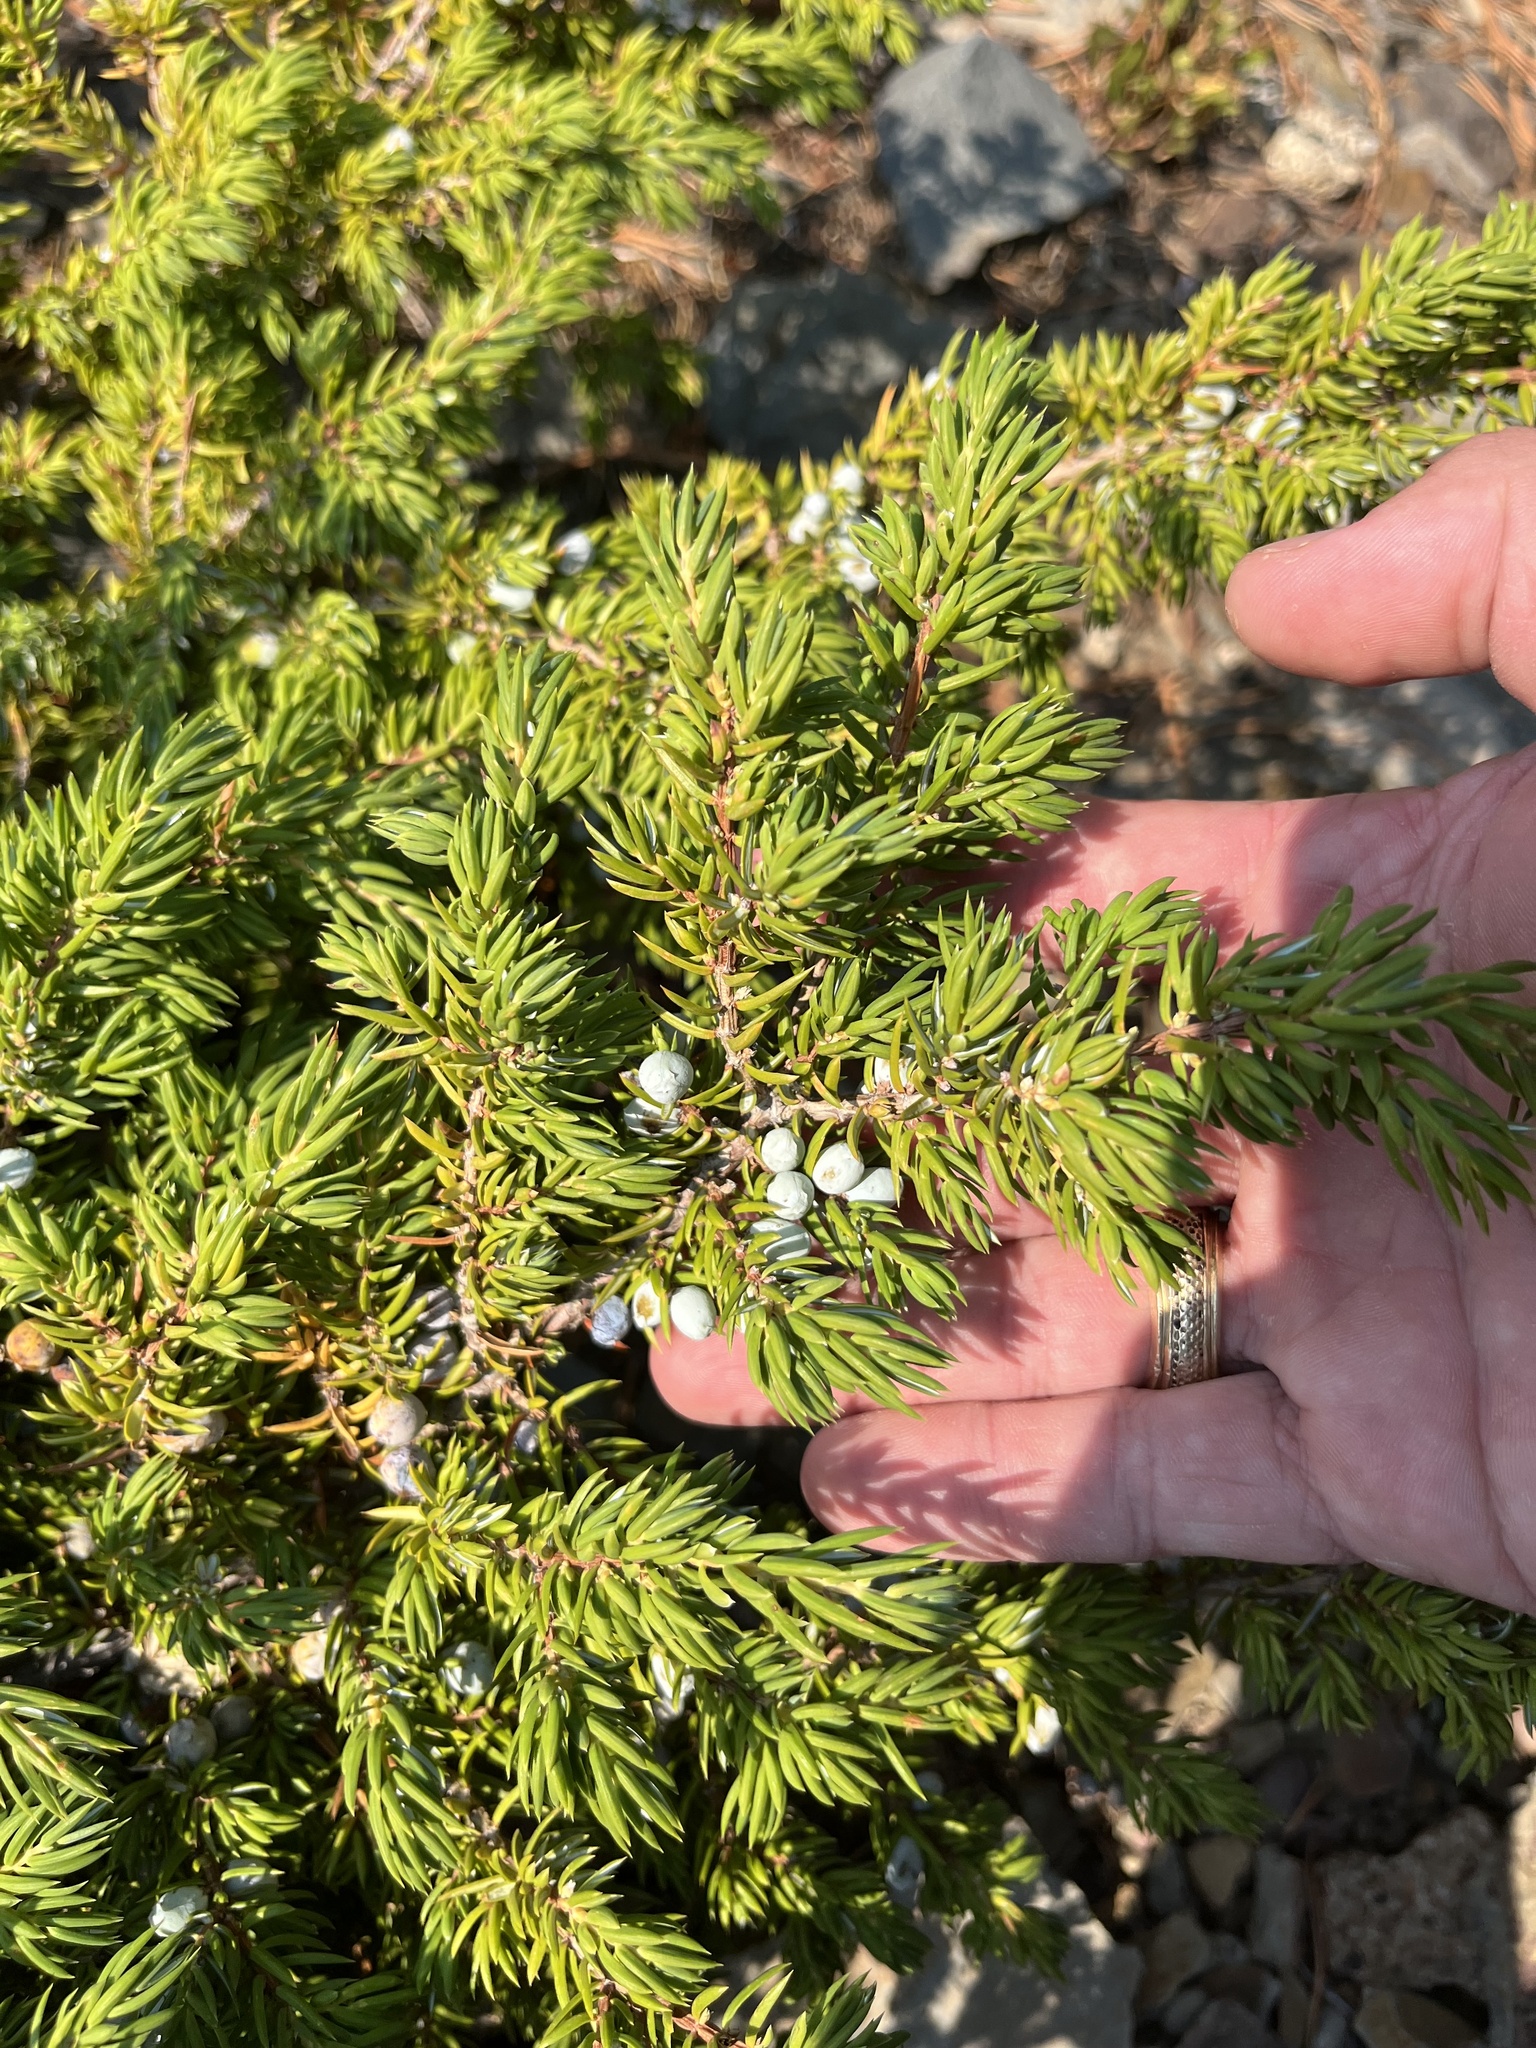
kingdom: Plantae
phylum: Tracheophyta
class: Pinopsida
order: Pinales
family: Cupressaceae
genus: Juniperus
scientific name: Juniperus communis
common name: Common juniper
